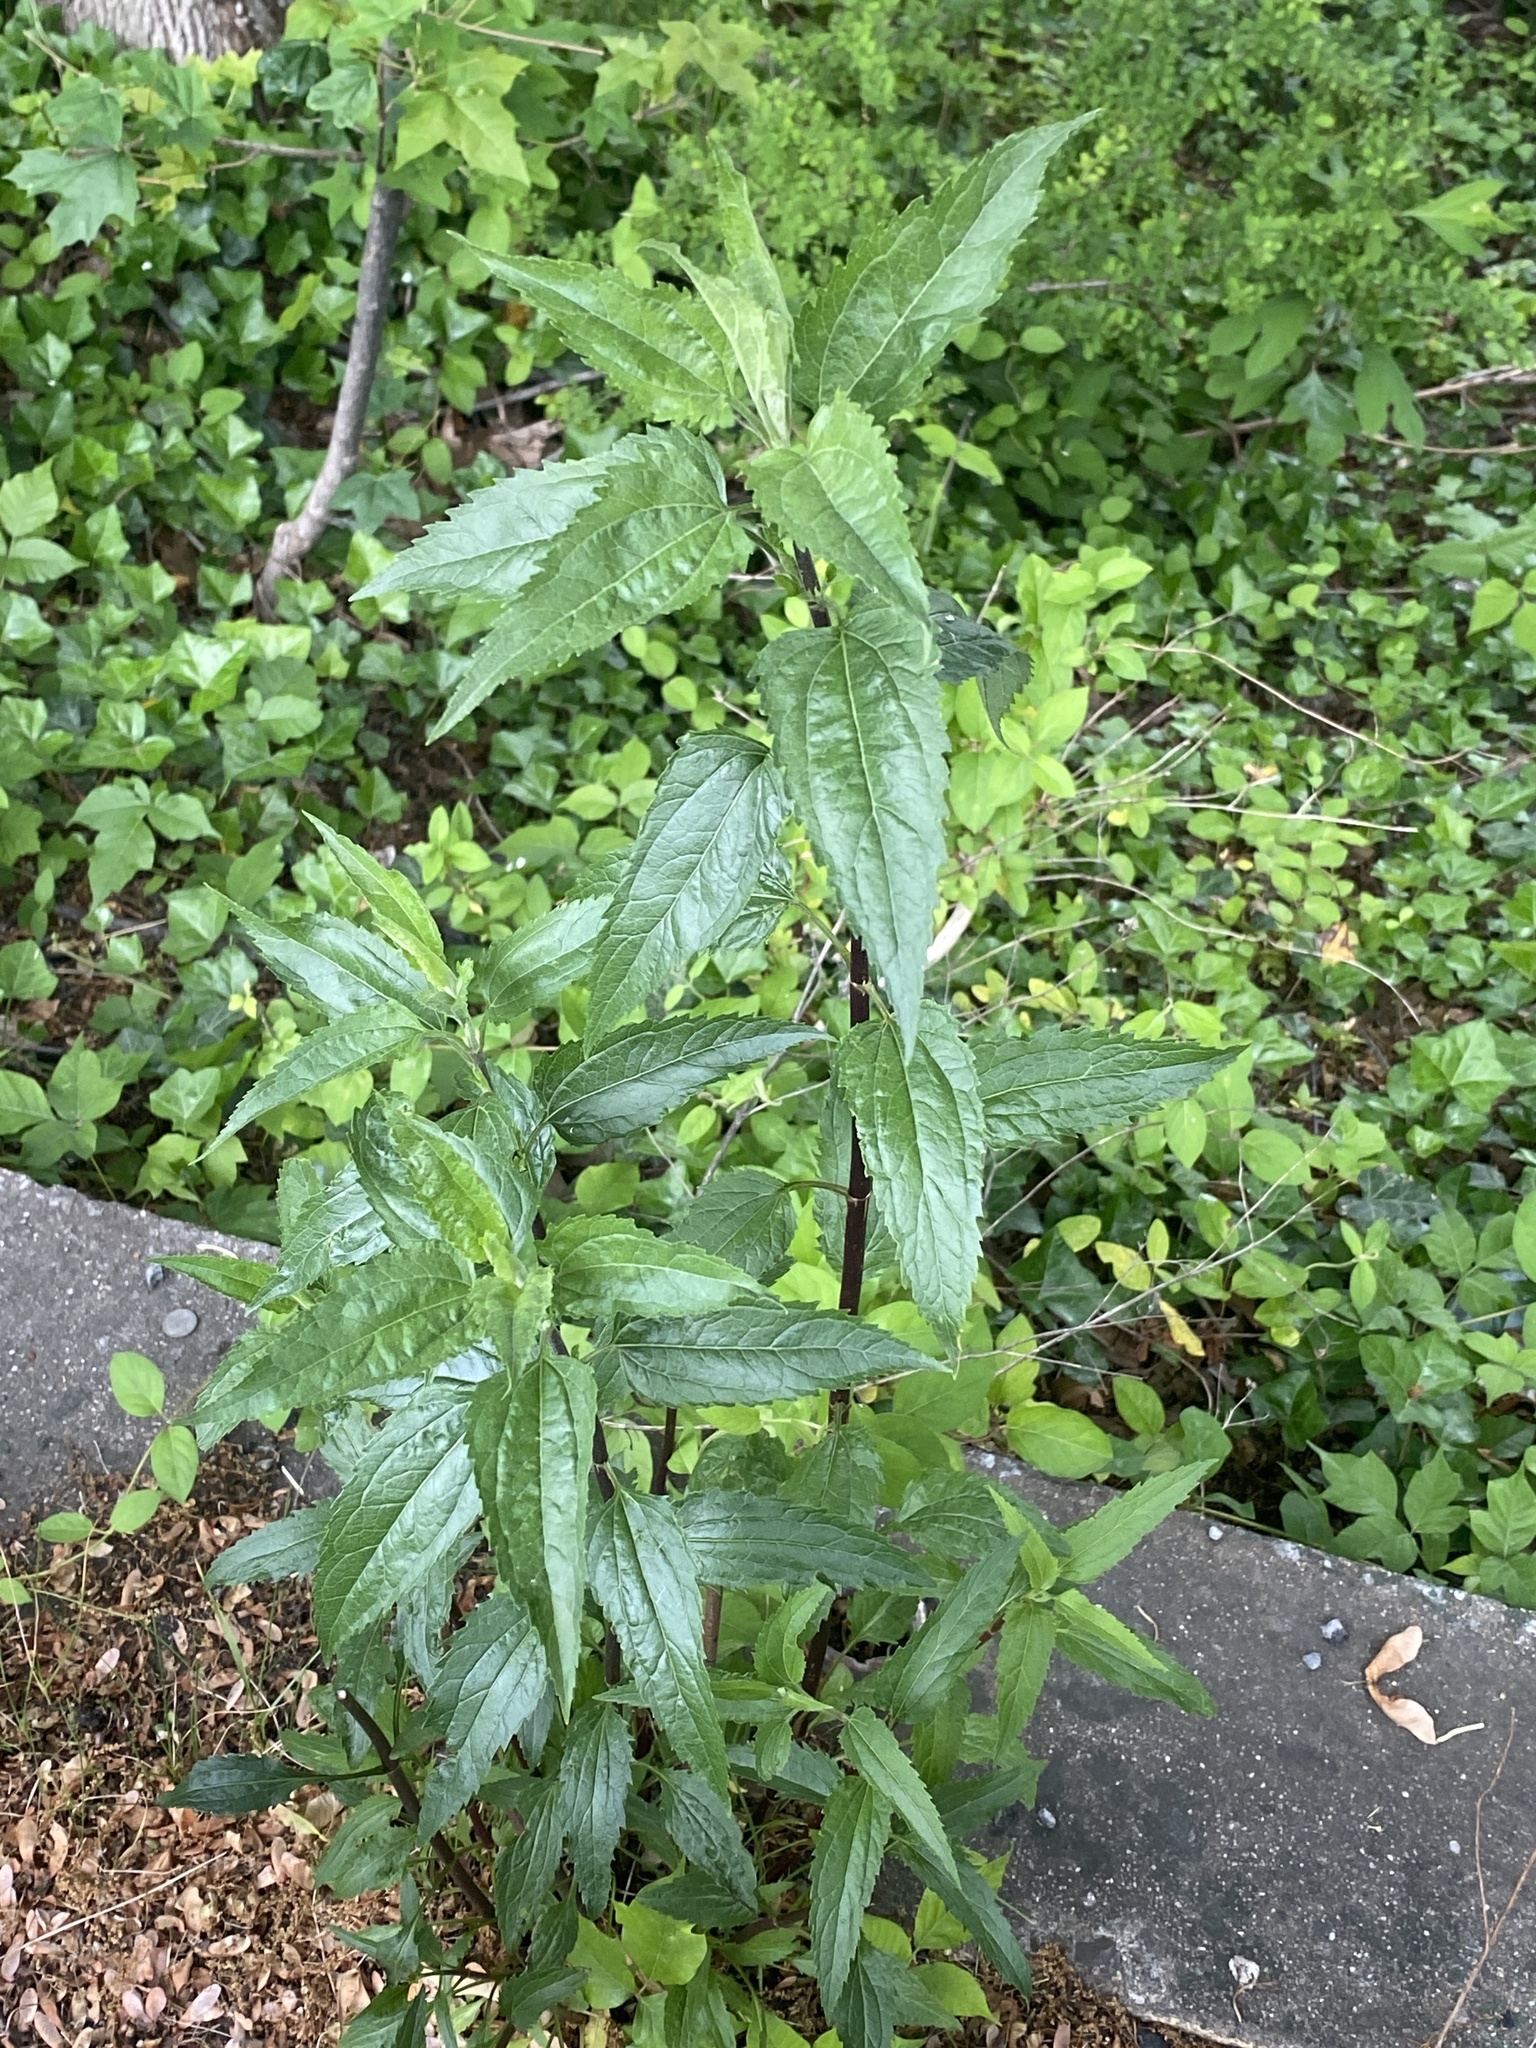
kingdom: Plantae
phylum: Tracheophyta
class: Magnoliopsida
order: Asterales
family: Asteraceae
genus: Eupatorium
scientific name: Eupatorium serotinum
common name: Late boneset
